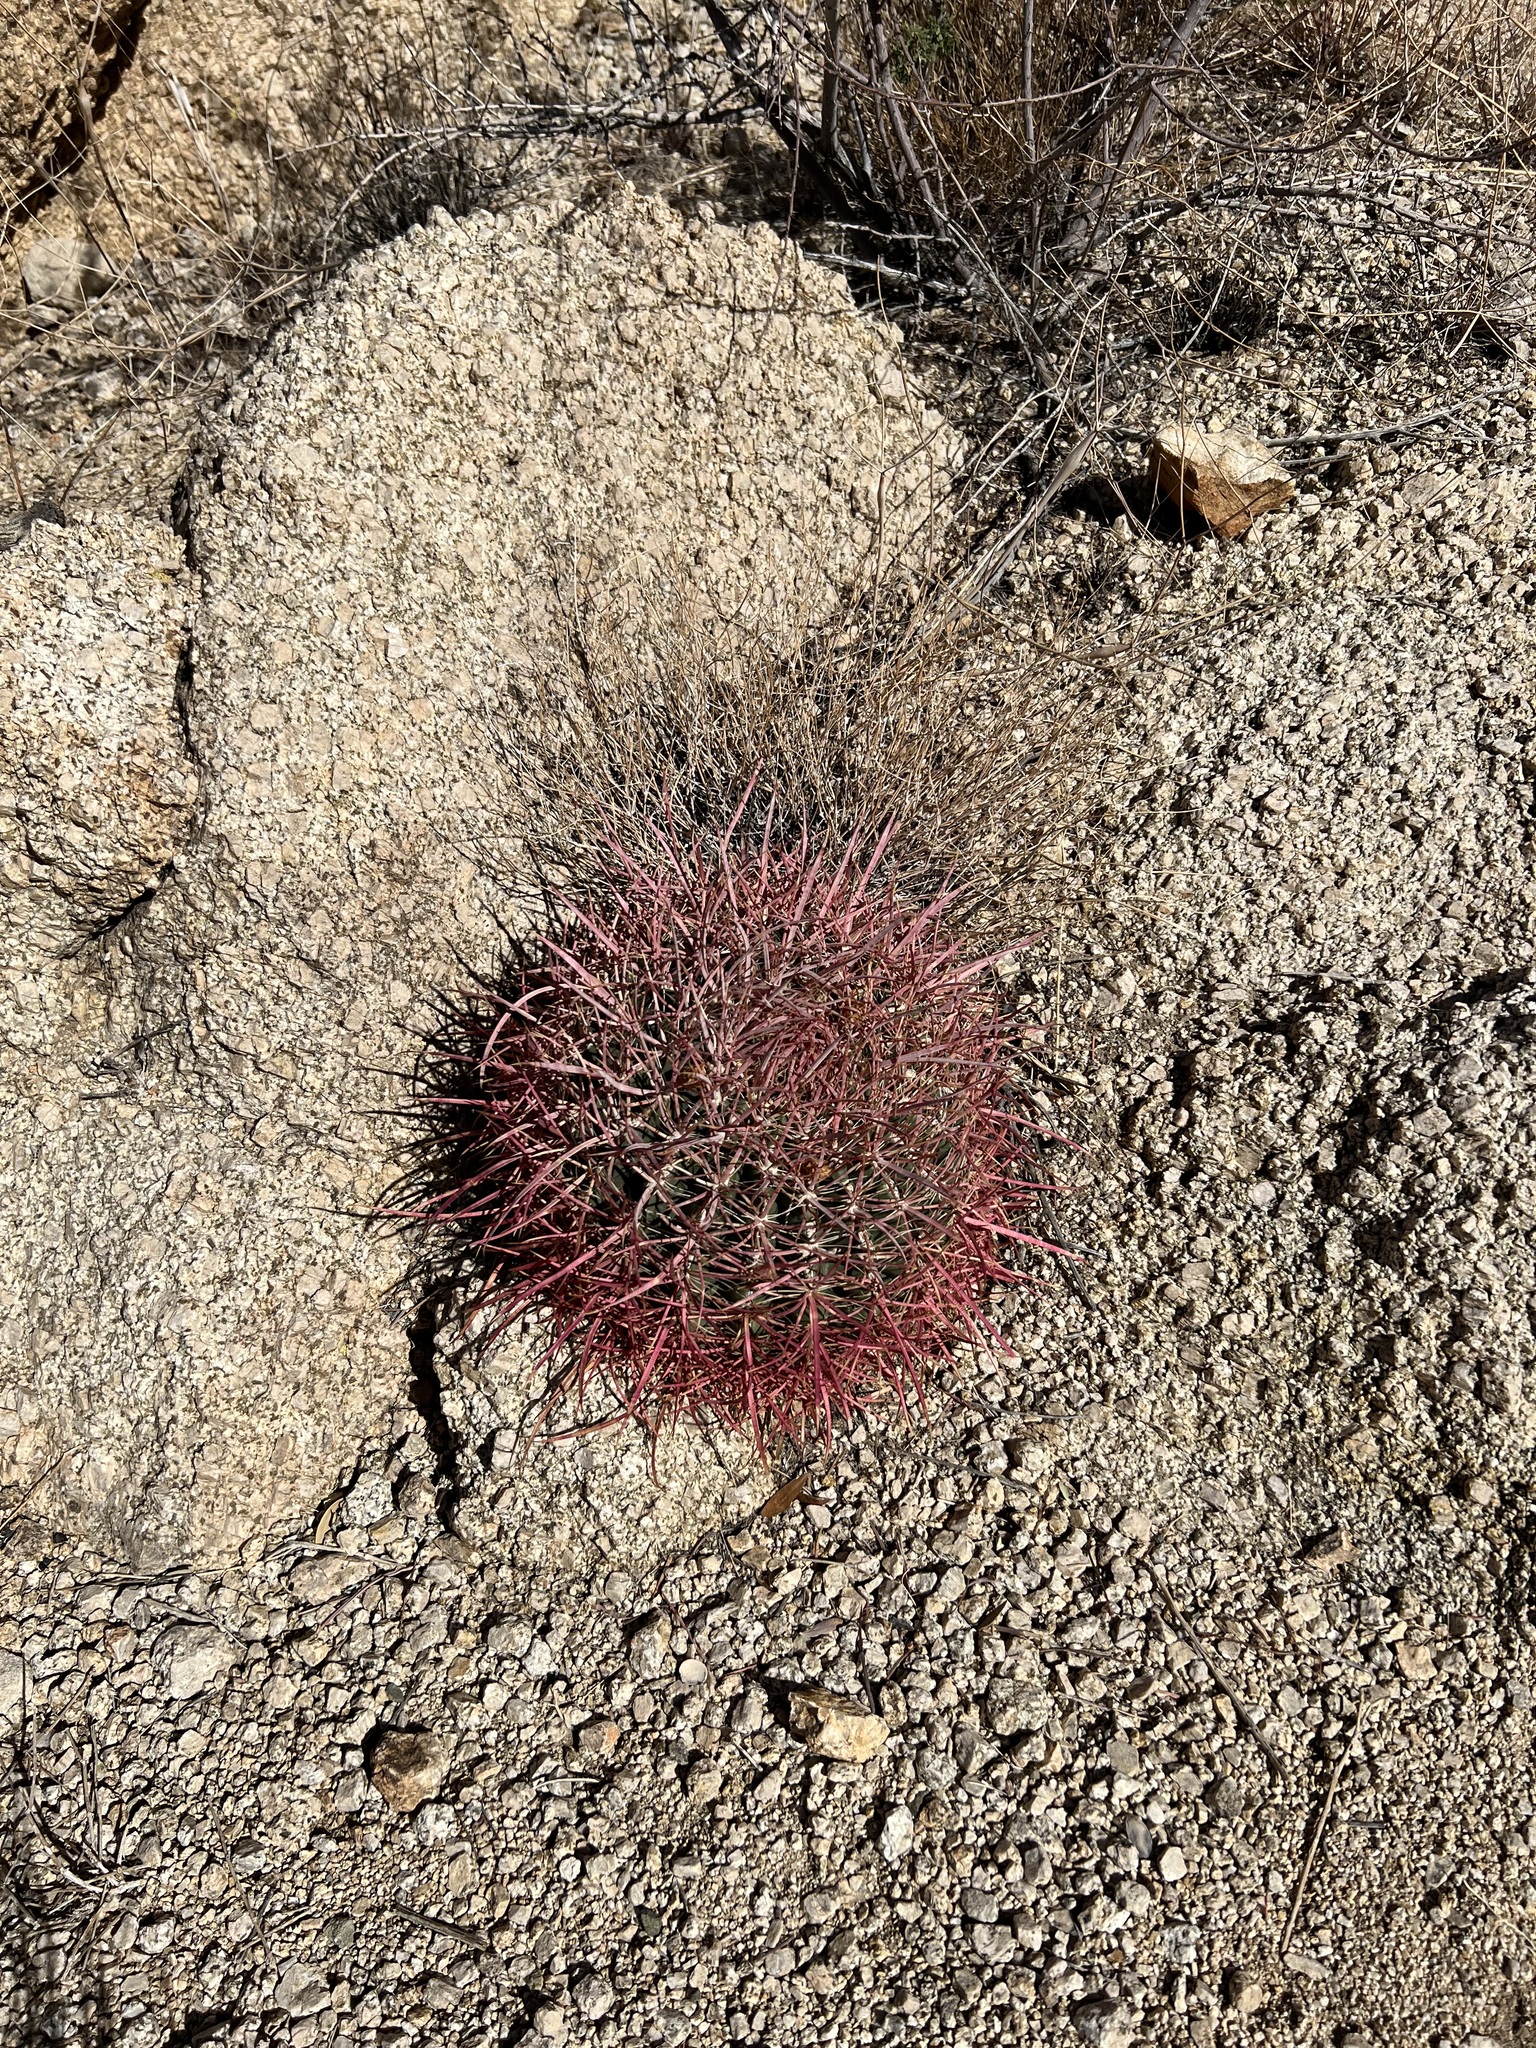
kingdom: Plantae
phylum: Tracheophyta
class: Magnoliopsida
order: Caryophyllales
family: Cactaceae
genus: Ferocactus
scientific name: Ferocactus cylindraceus
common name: California barrel cactus
